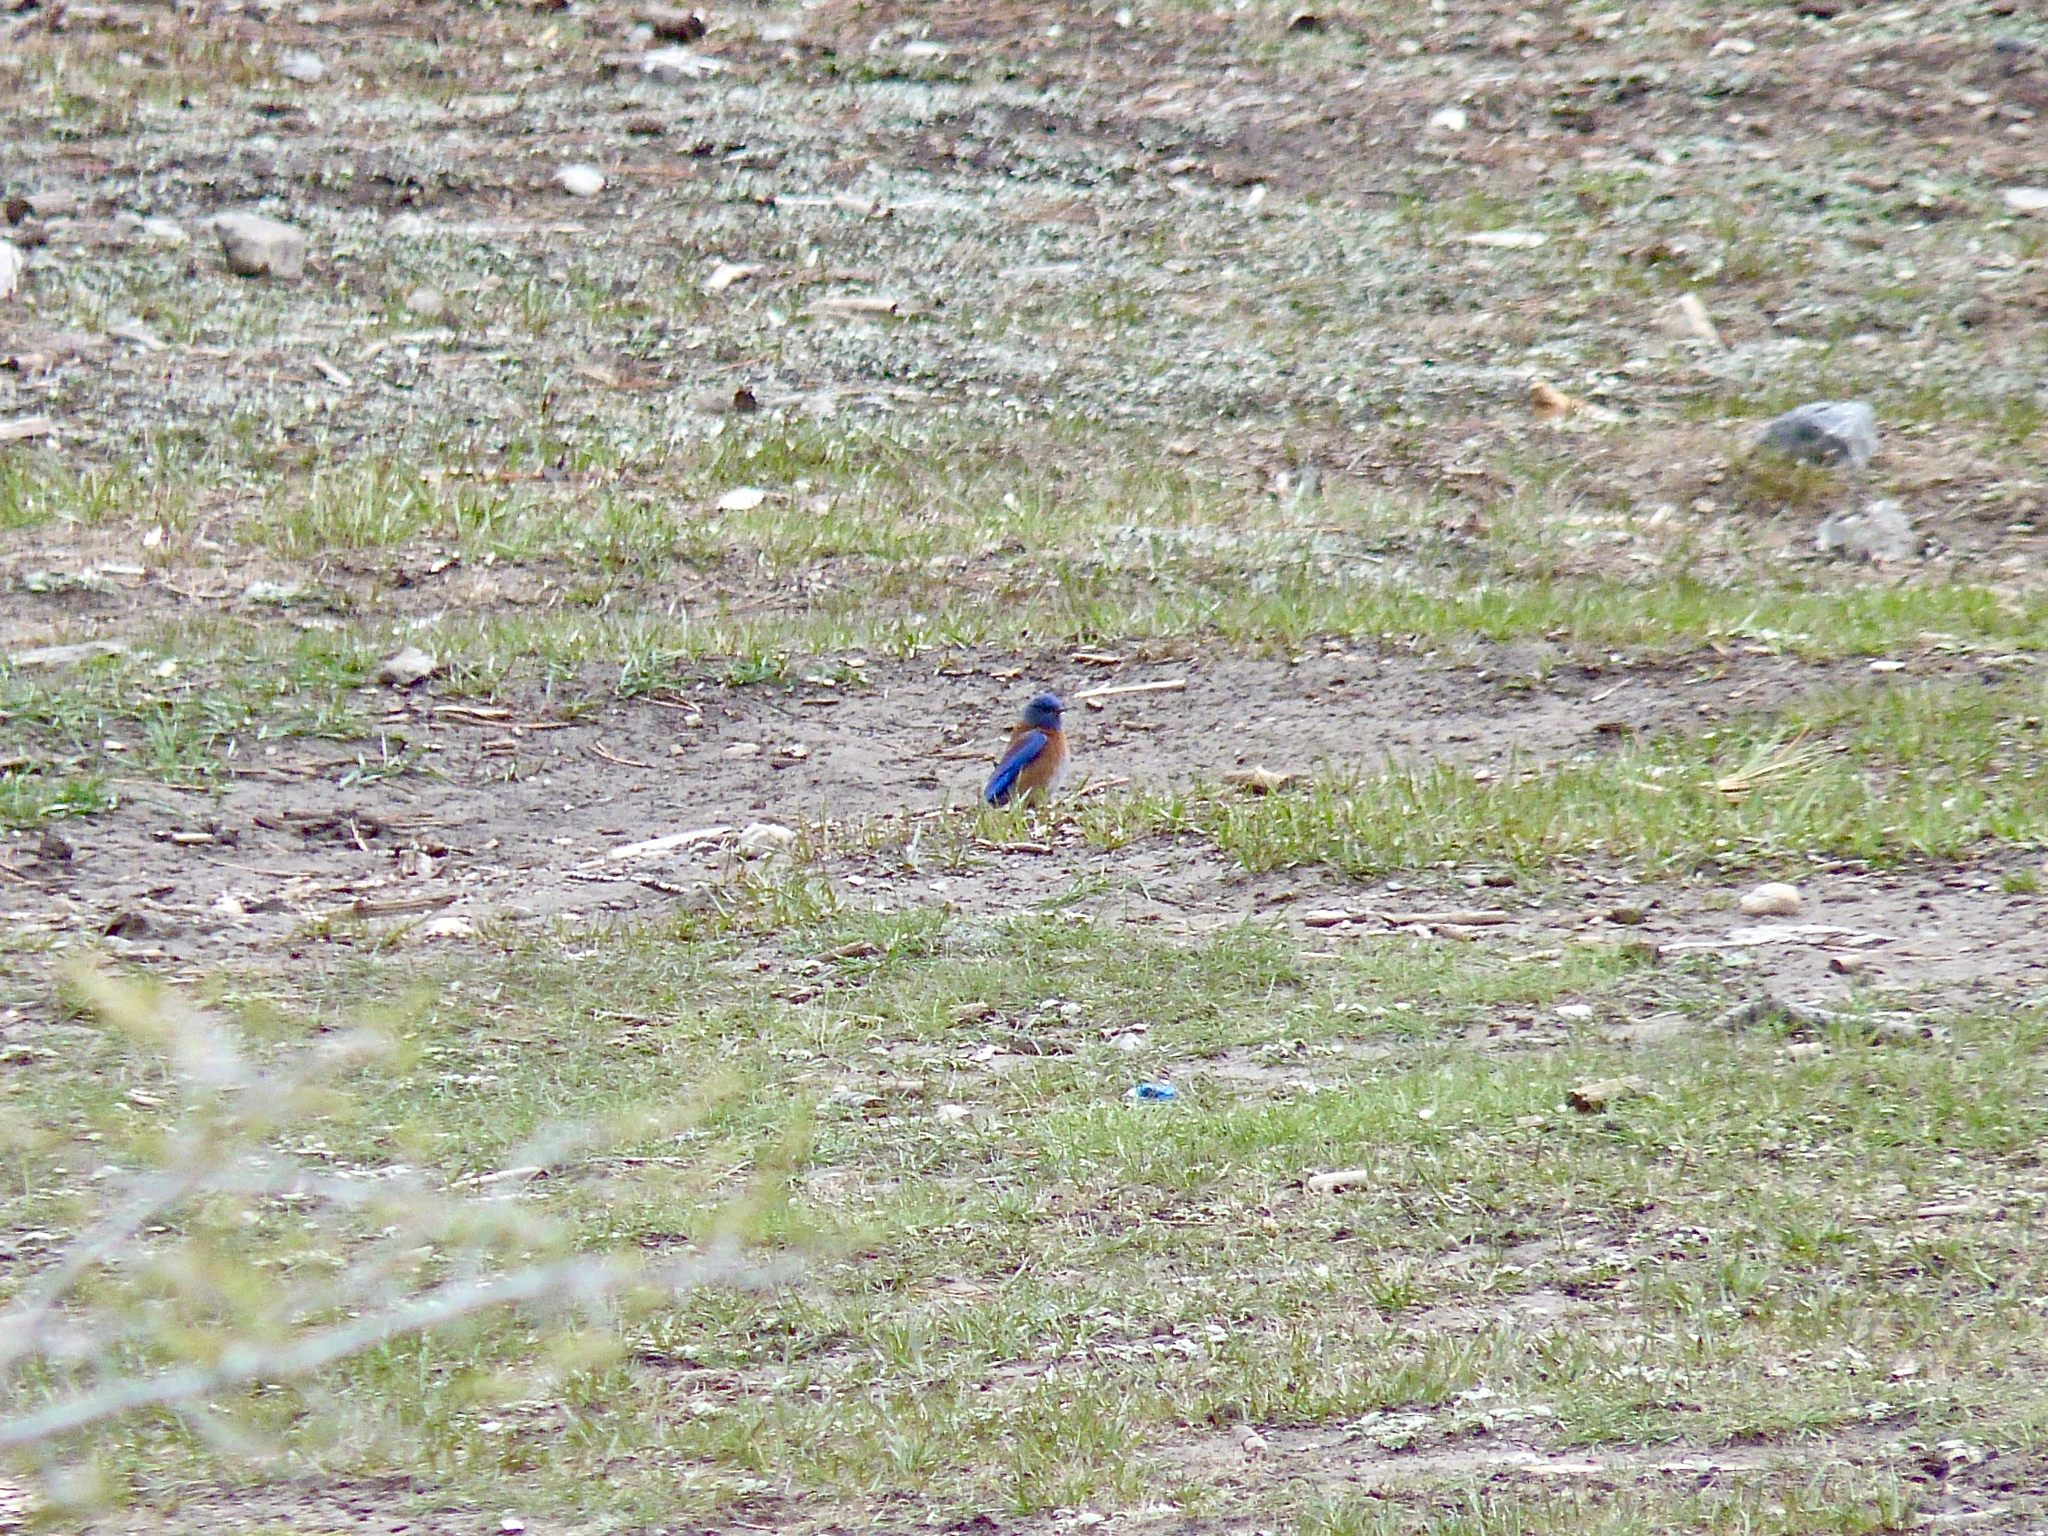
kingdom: Animalia
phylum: Chordata
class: Aves
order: Passeriformes
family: Turdidae
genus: Sialia
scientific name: Sialia mexicana
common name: Western bluebird
